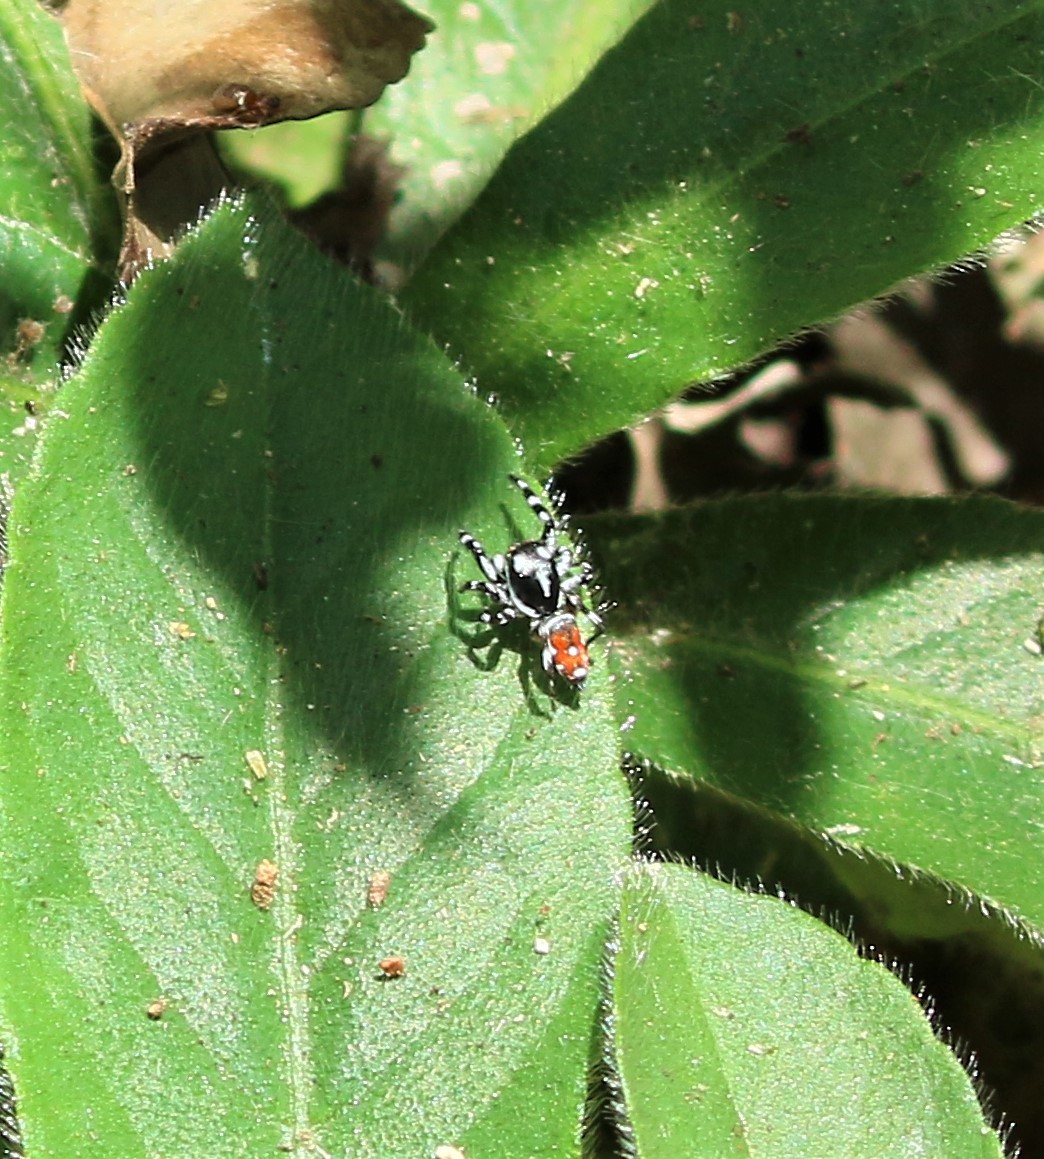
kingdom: Animalia
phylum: Arthropoda
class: Arachnida
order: Araneae
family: Salticidae
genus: Pachomius
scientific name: Pachomius dybowskii
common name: Jumping spiders
